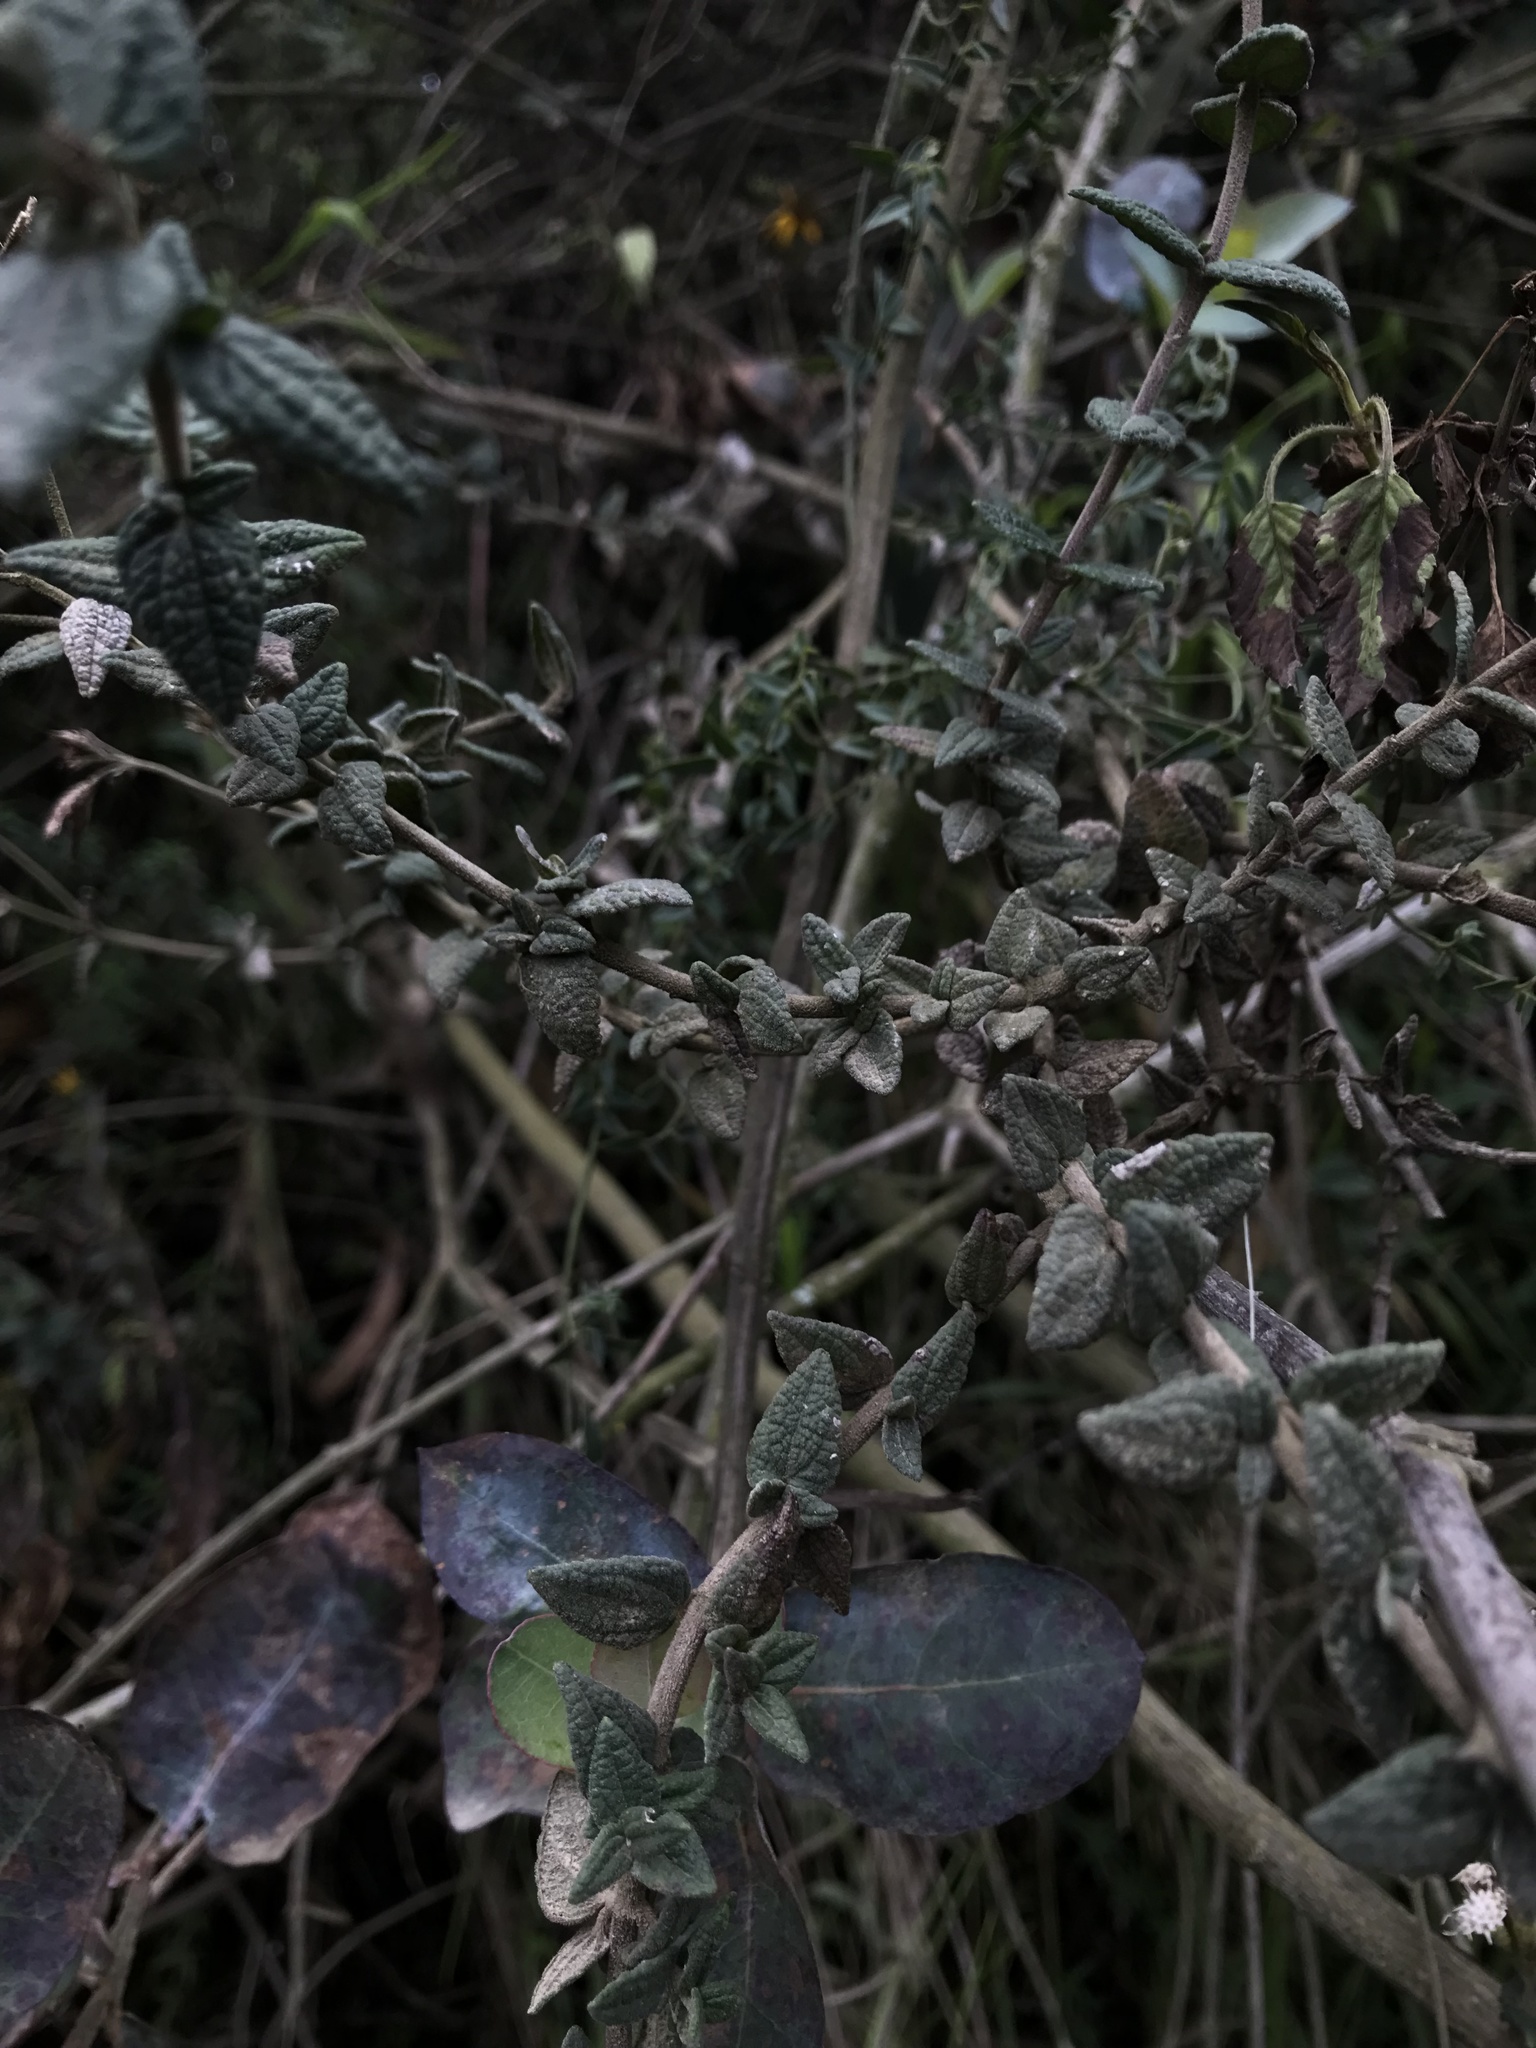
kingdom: Plantae
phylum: Tracheophyta
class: Magnoliopsida
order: Asterales
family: Asteraceae
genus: Chromolaena
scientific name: Chromolaena bullata
